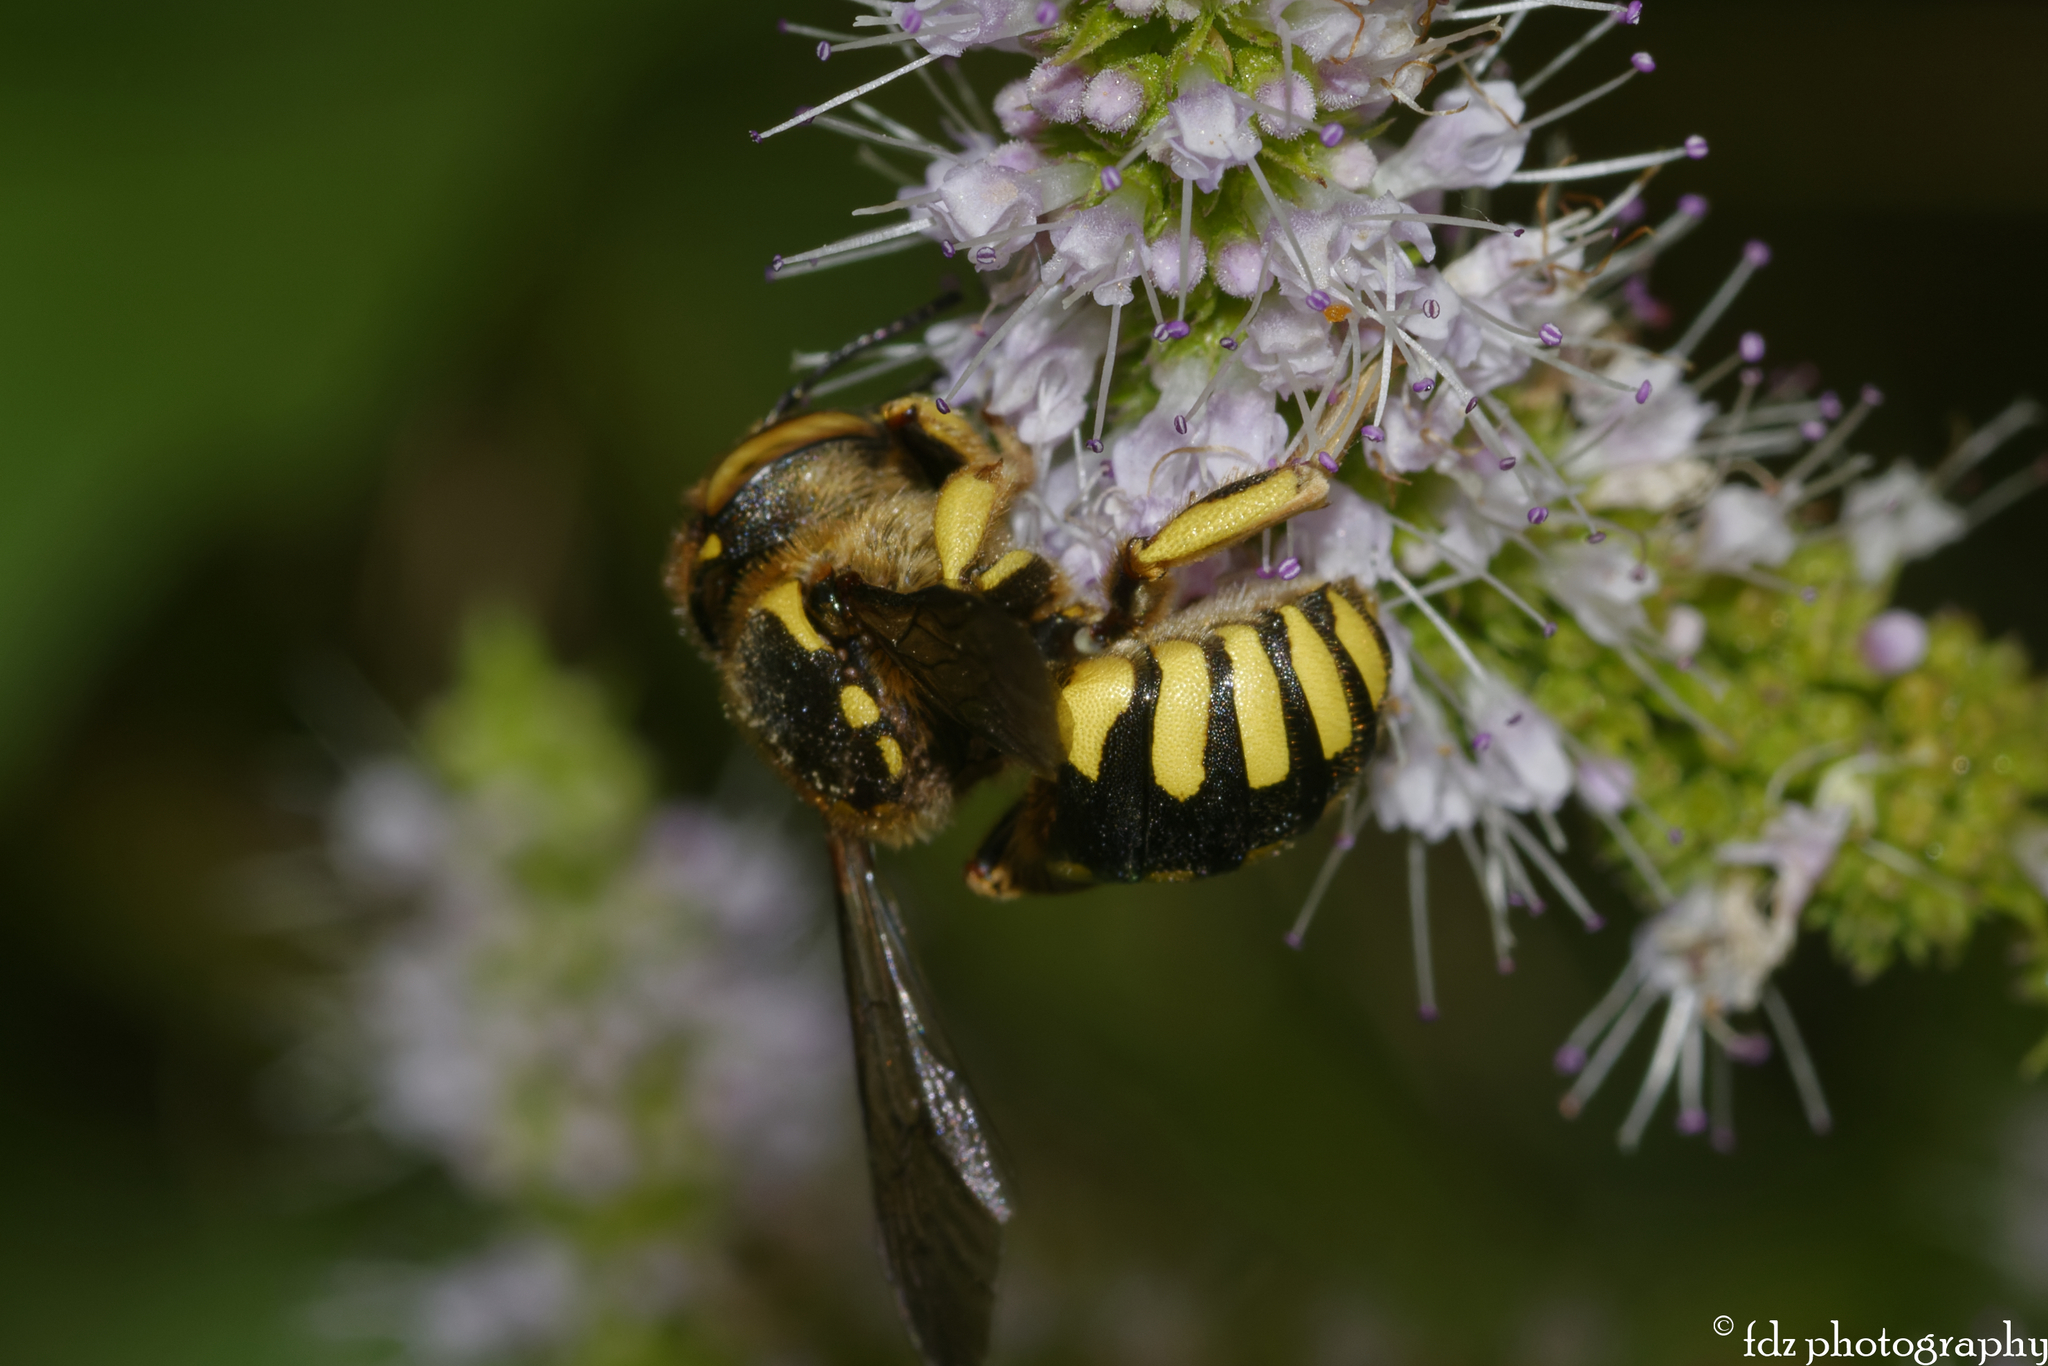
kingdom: Animalia
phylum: Arthropoda
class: Insecta
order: Hymenoptera
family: Megachilidae
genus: Anthidium
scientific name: Anthidium florentinum
